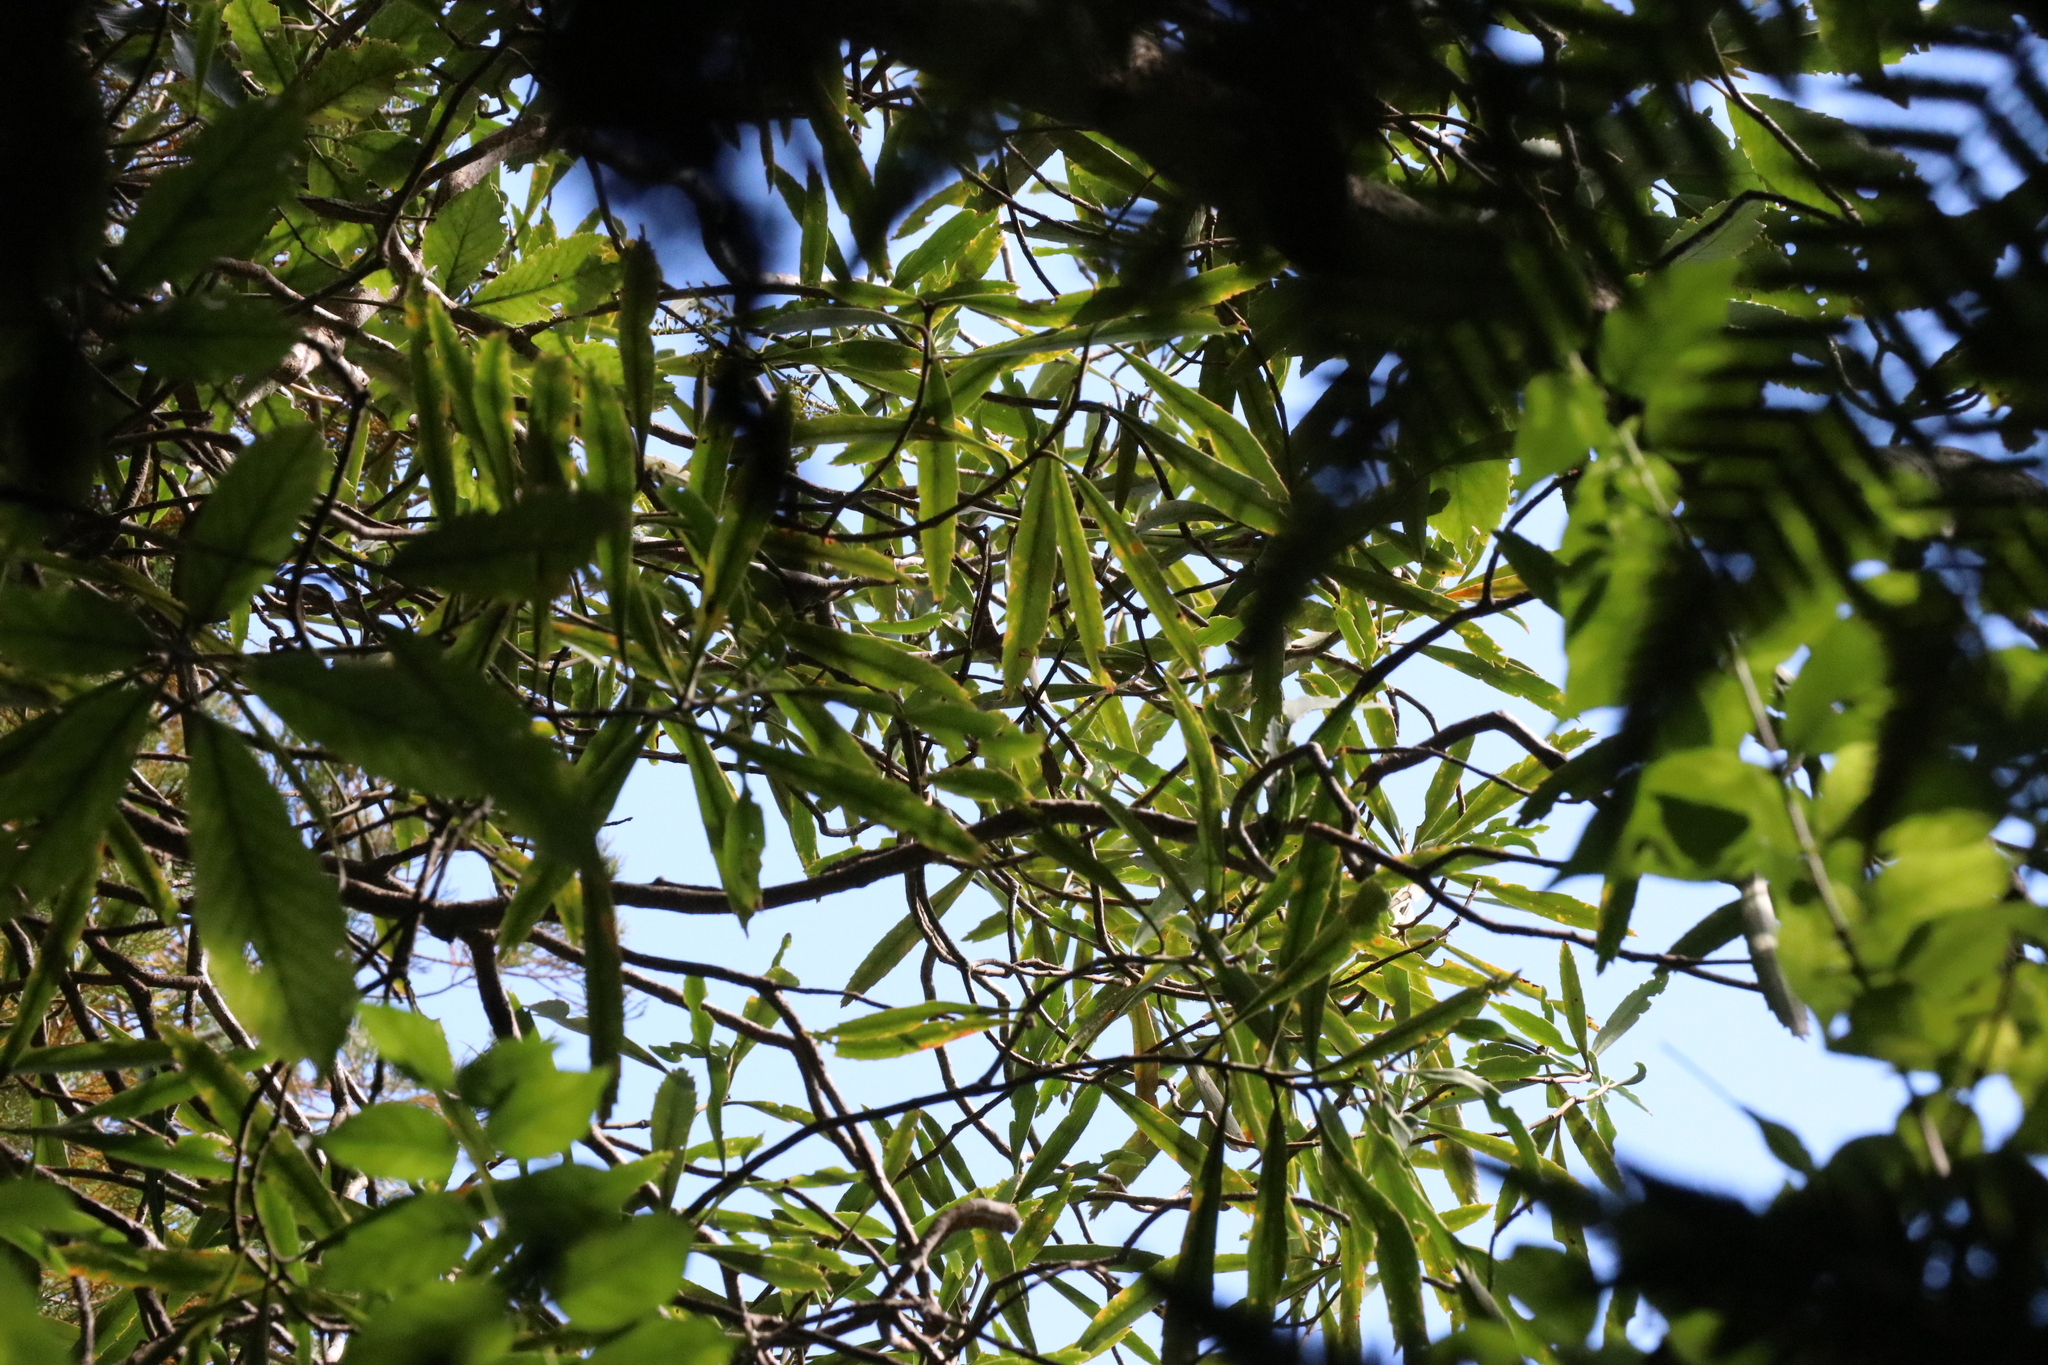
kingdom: Plantae
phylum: Tracheophyta
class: Magnoliopsida
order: Apiales
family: Araliaceae
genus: Pseudopanax
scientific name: Pseudopanax crassifolius
